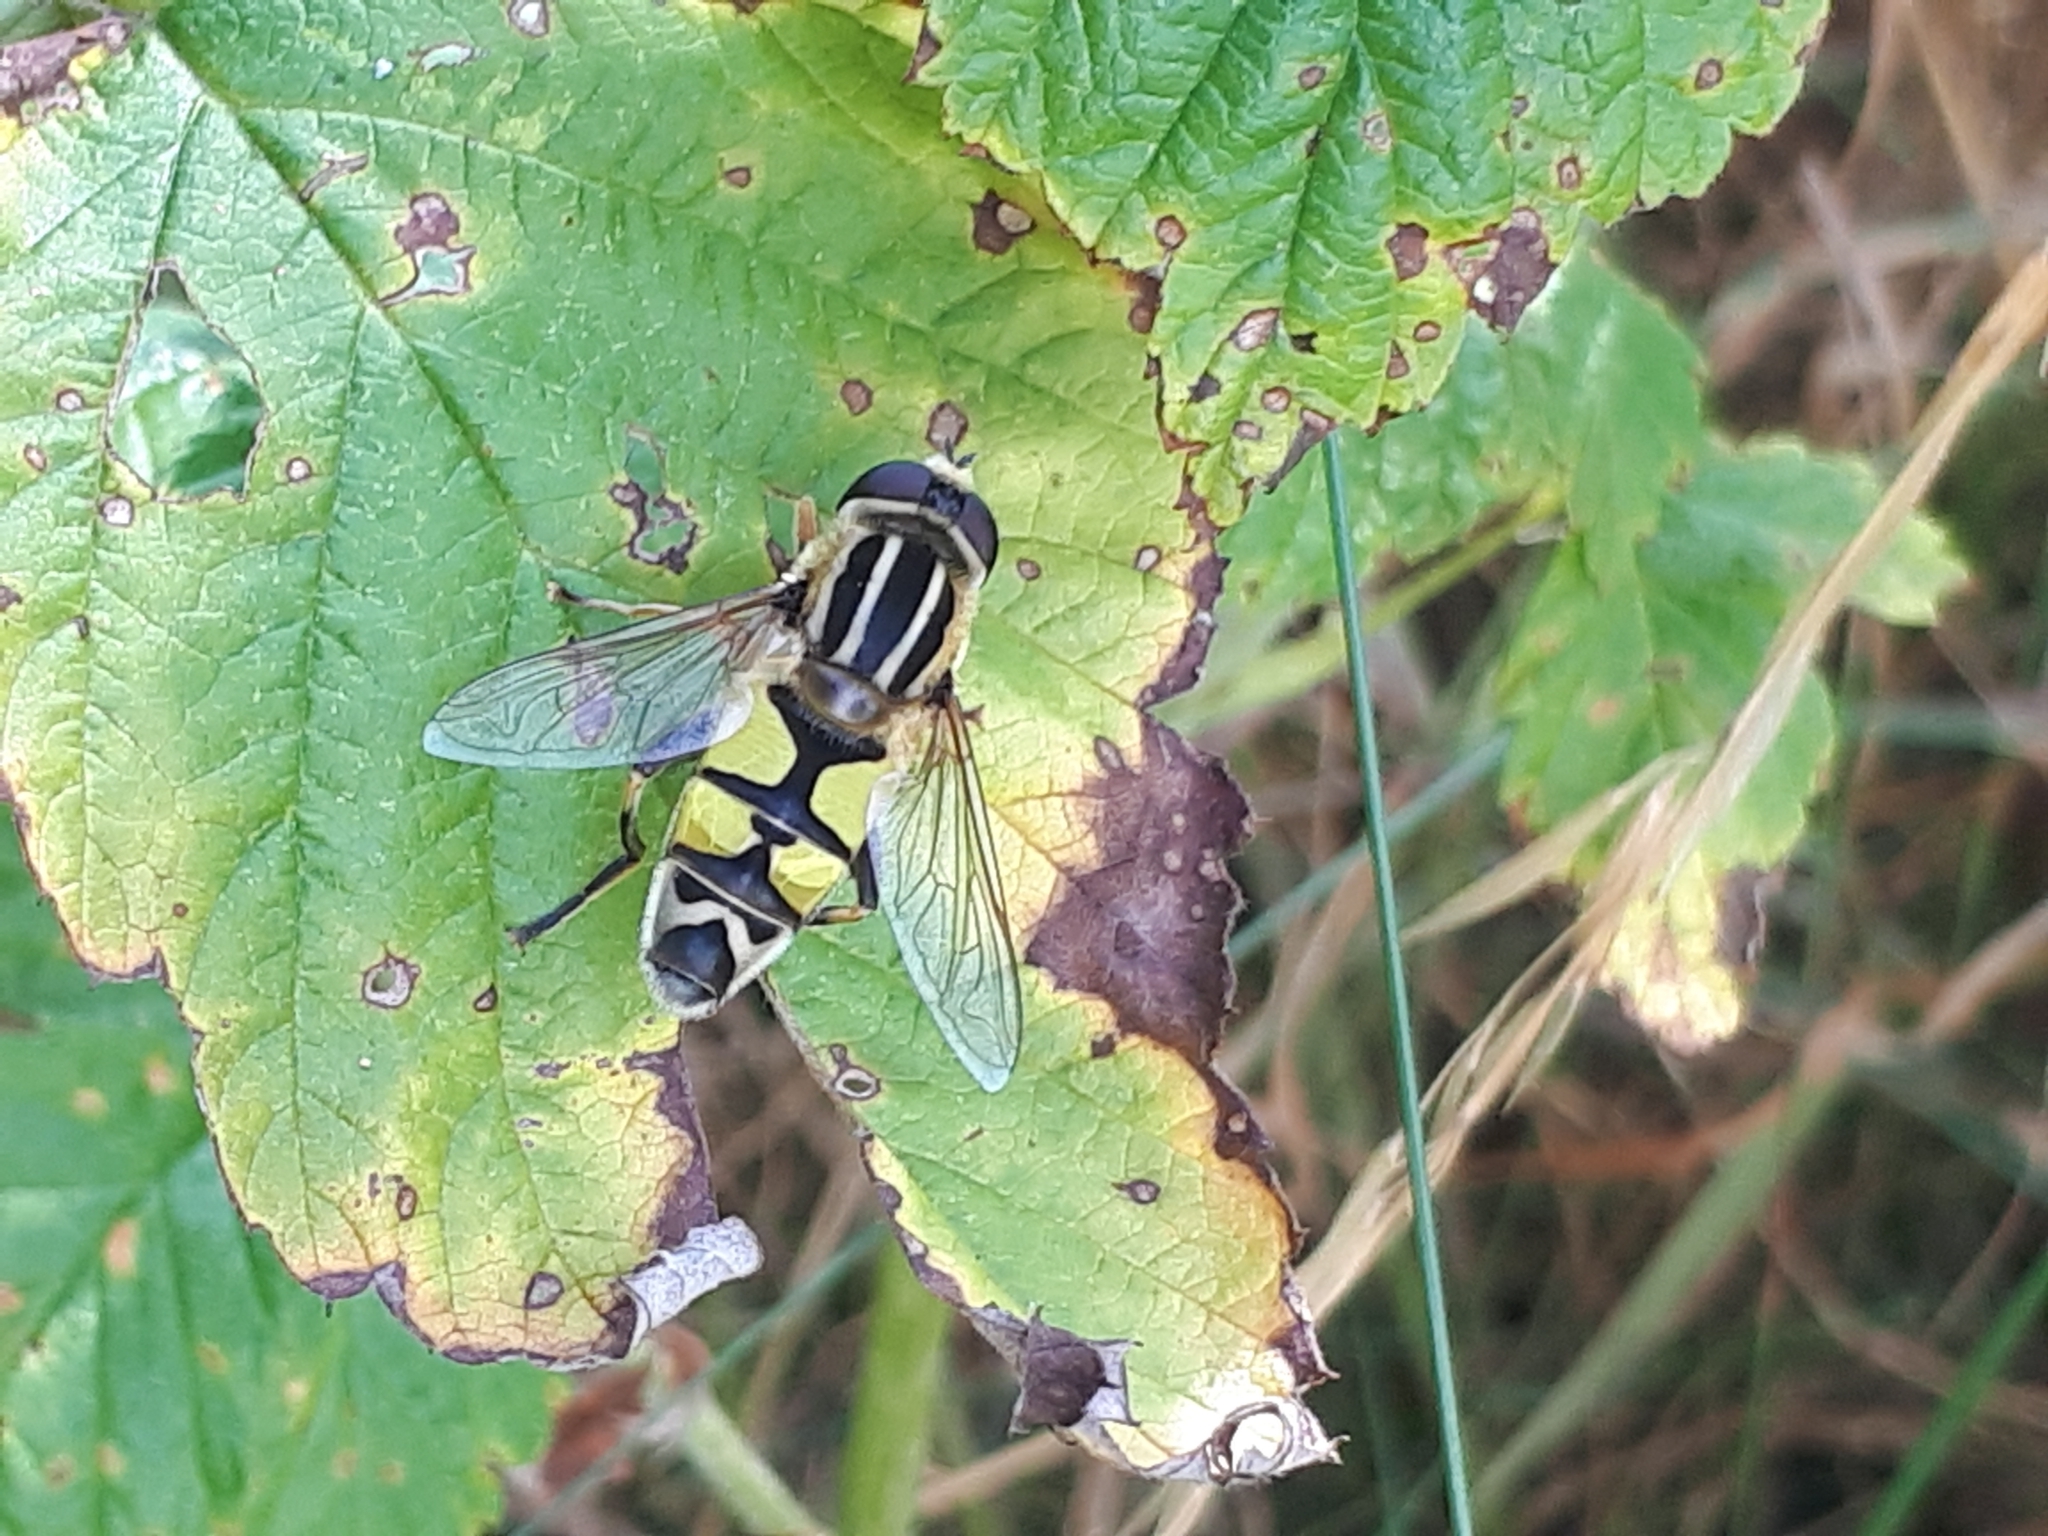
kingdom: Animalia
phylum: Arthropoda
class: Insecta
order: Diptera
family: Syrphidae
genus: Helophilus
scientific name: Helophilus trivittatus
